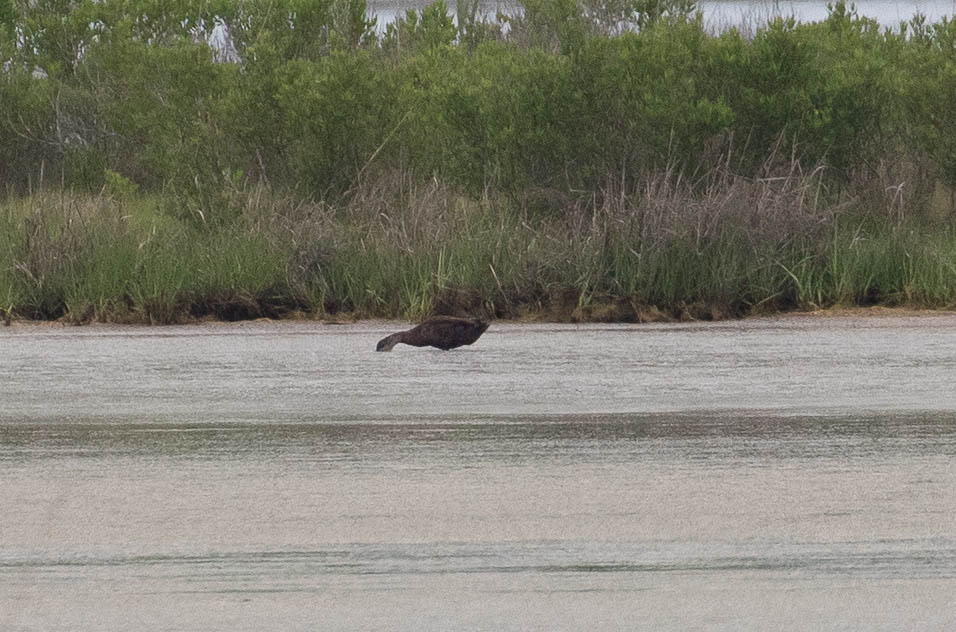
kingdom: Animalia
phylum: Chordata
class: Aves
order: Anseriformes
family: Anatidae
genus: Anas
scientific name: Anas rubripes
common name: American black duck
